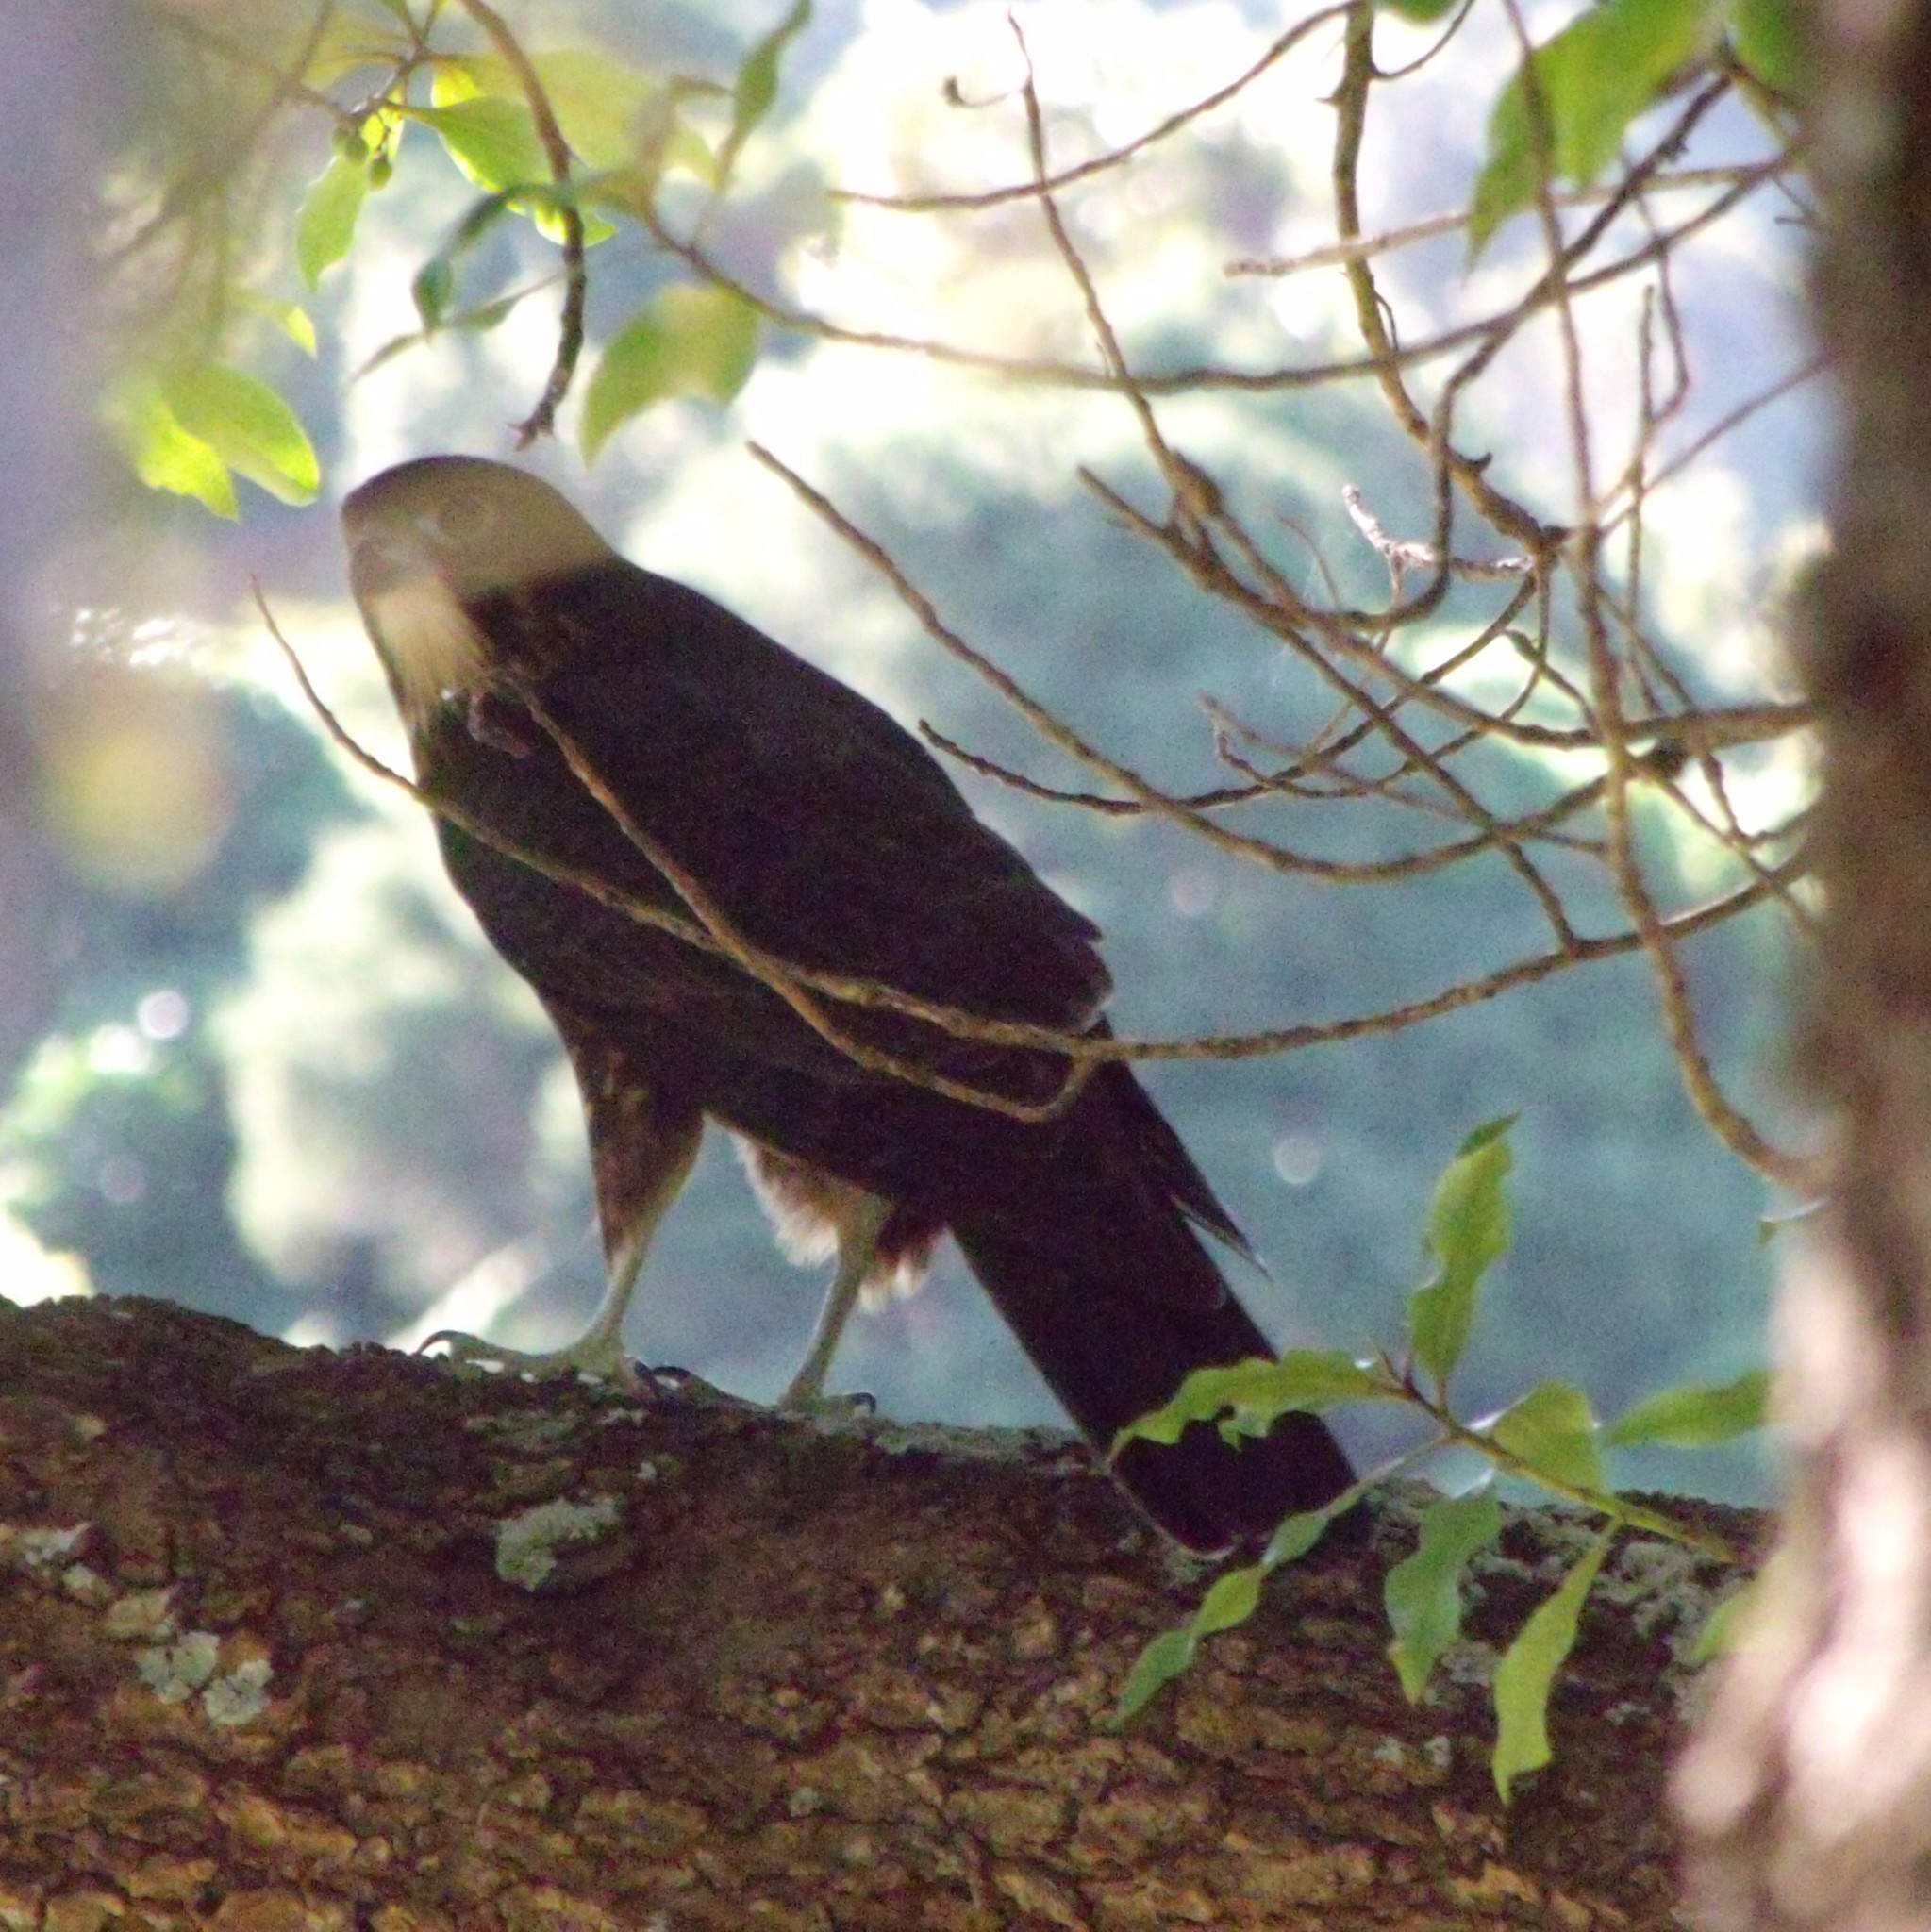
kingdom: Animalia
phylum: Chordata
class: Aves
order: Falconiformes
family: Falconidae
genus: Falco
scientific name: Falco novaeseelandiae
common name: New zealand falcon
